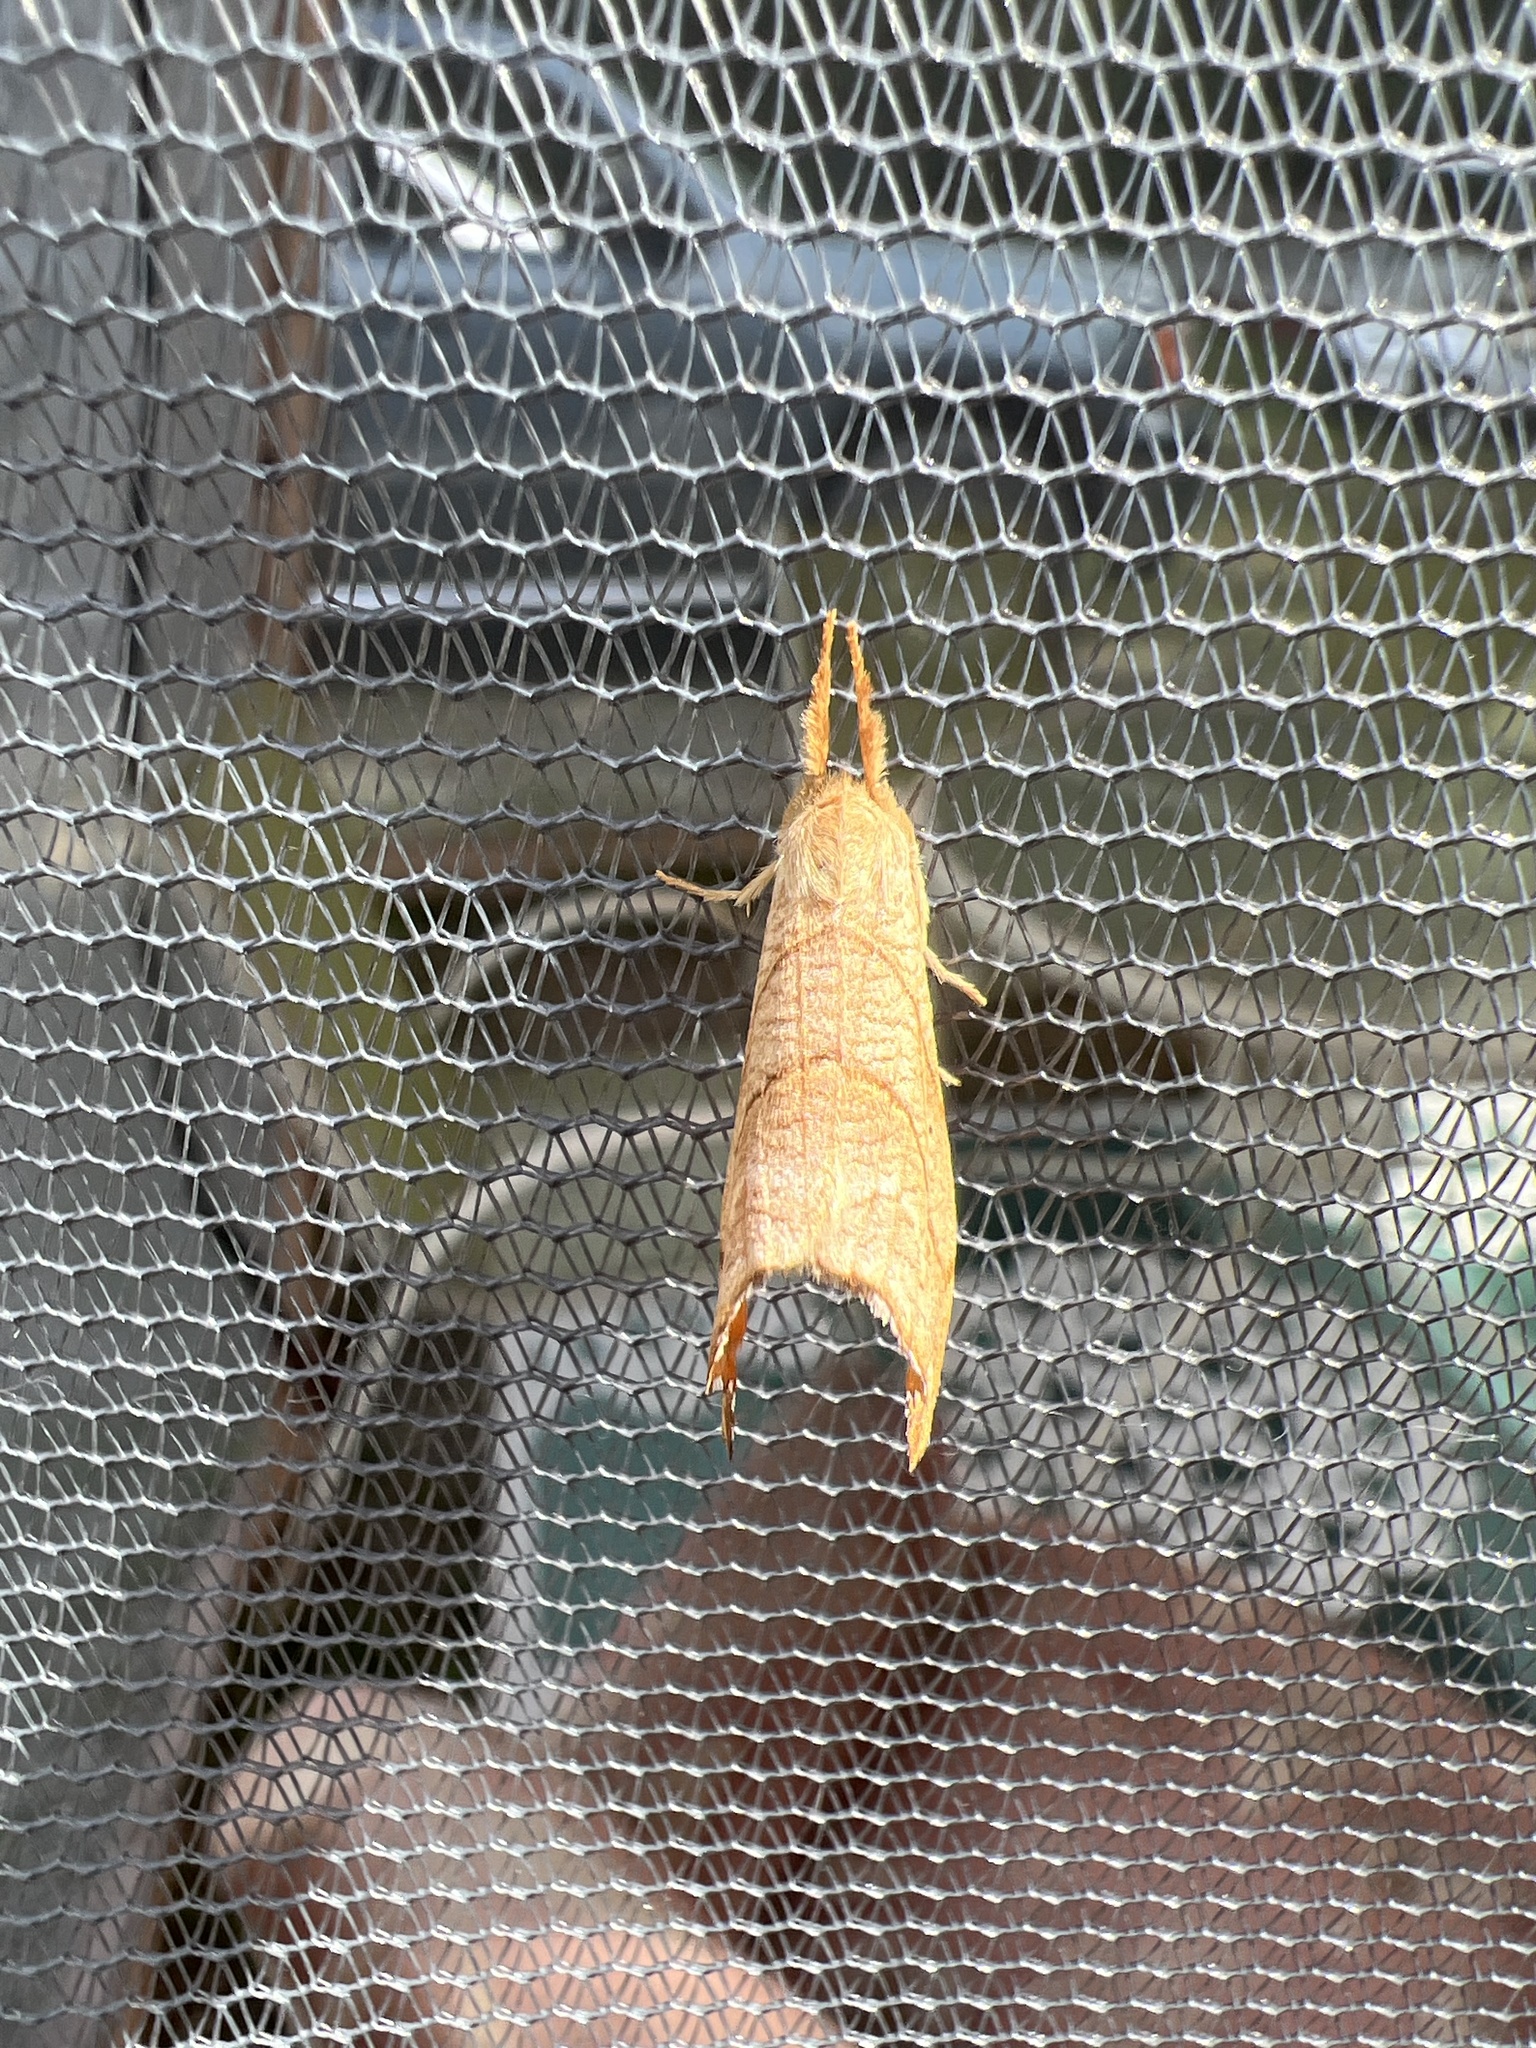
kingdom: Animalia
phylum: Arthropoda
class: Insecta
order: Lepidoptera
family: Drepanidae
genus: Falcaria
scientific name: Falcaria bilineata
